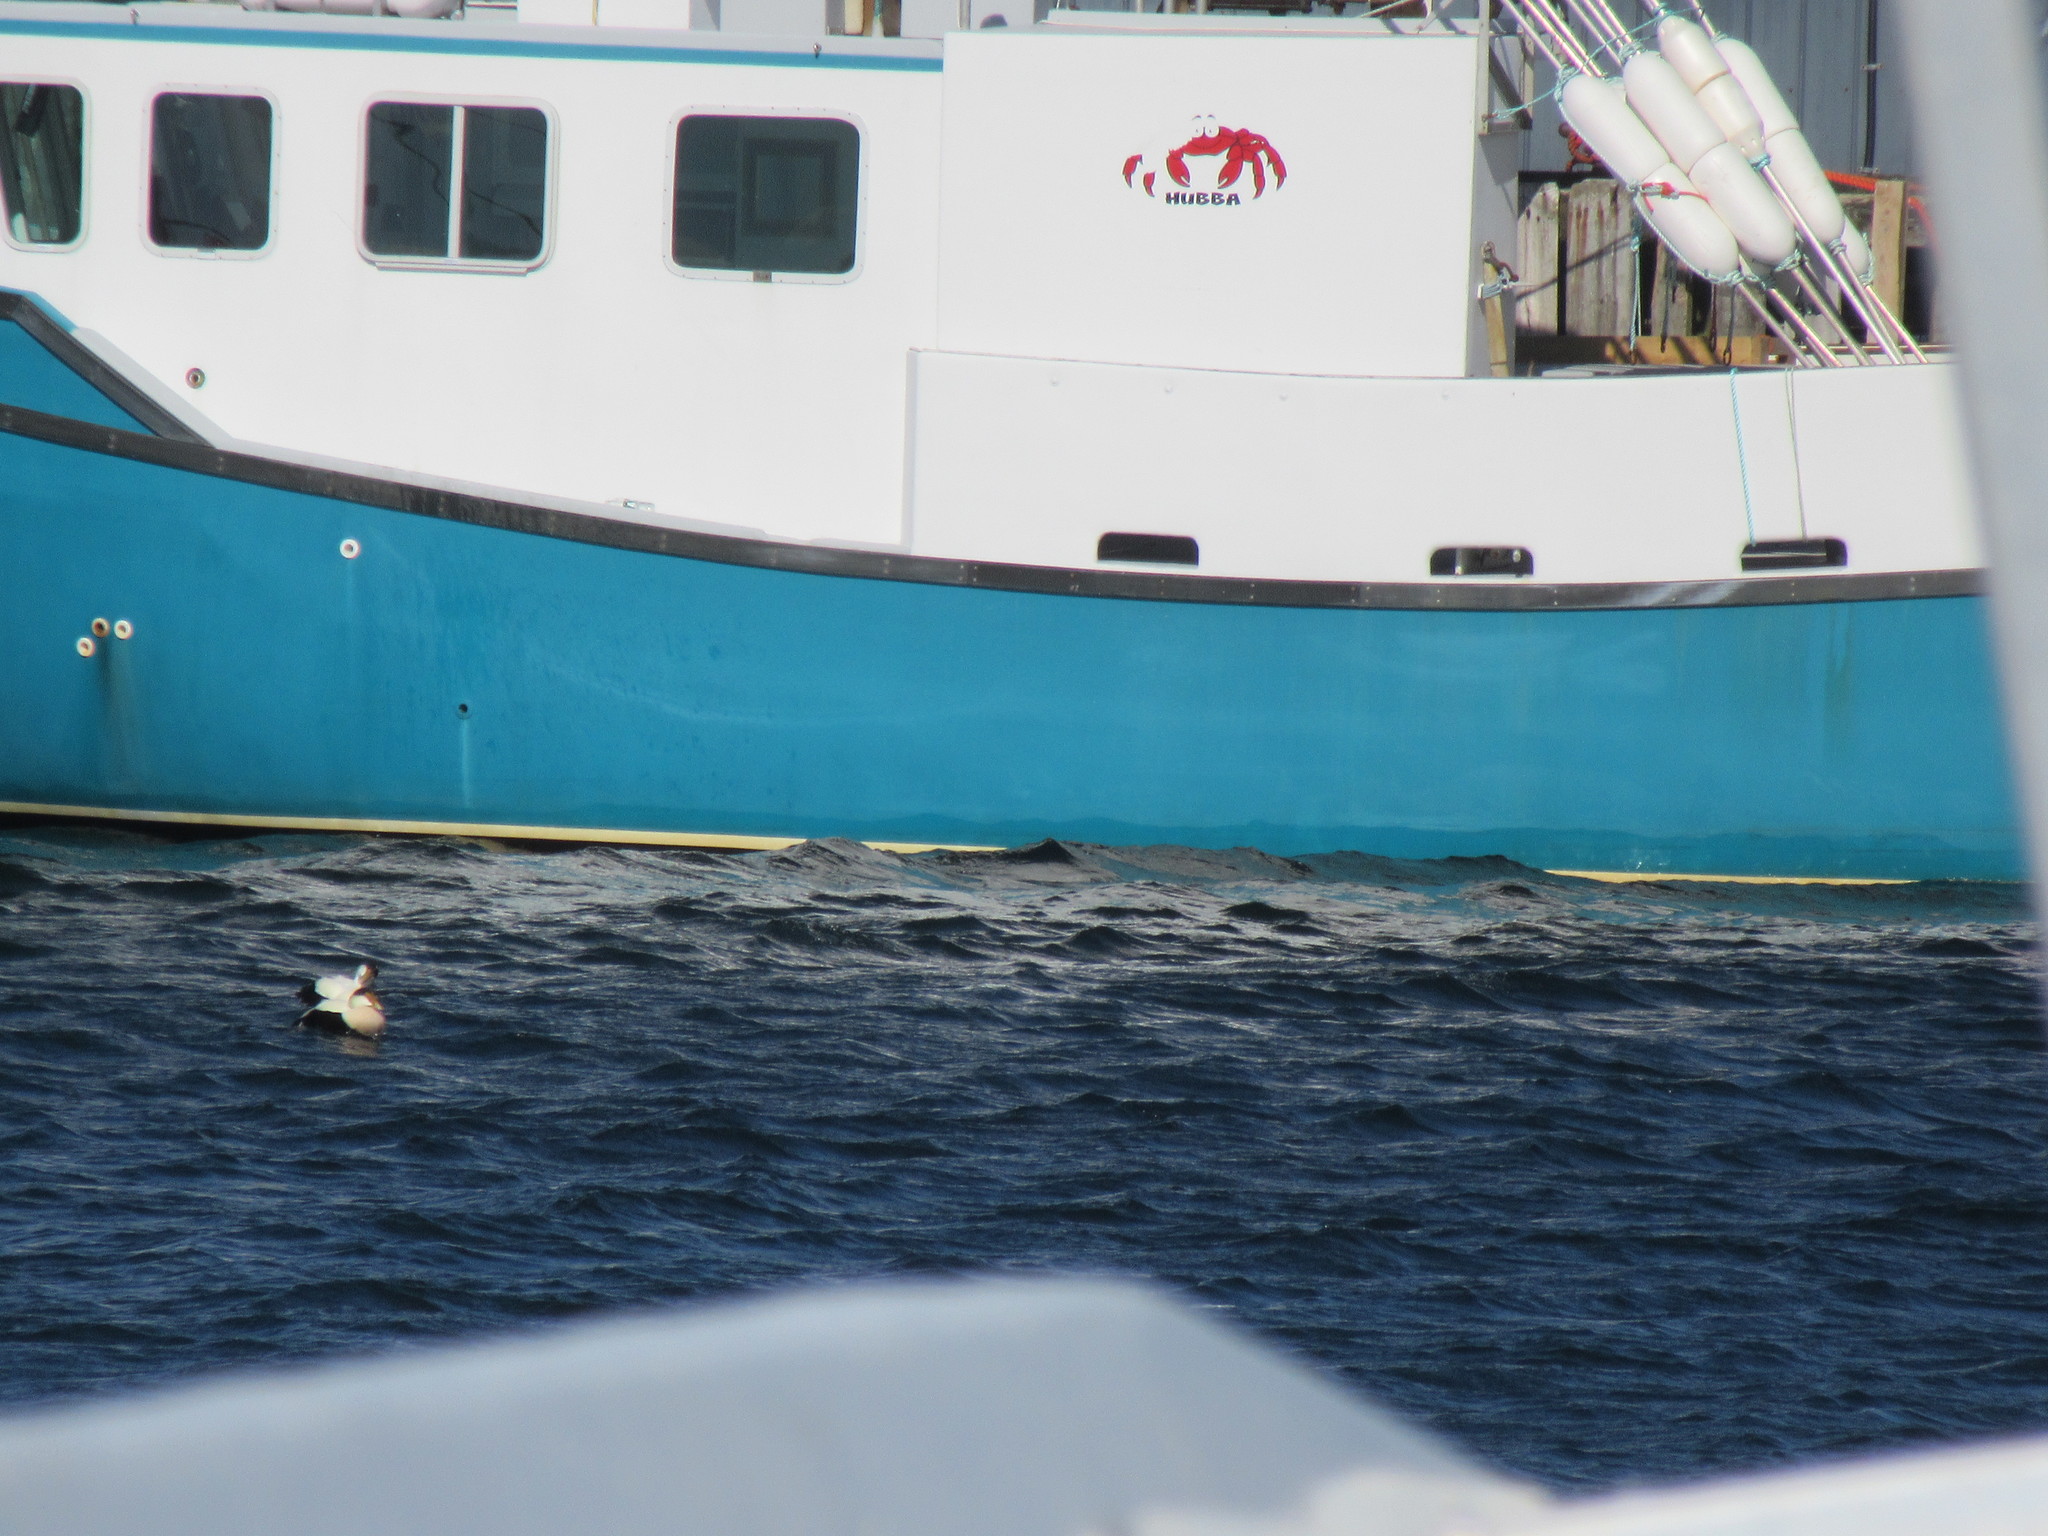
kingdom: Animalia
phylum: Chordata
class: Aves
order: Anseriformes
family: Anatidae
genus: Somateria
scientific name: Somateria mollissima
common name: Common eider
